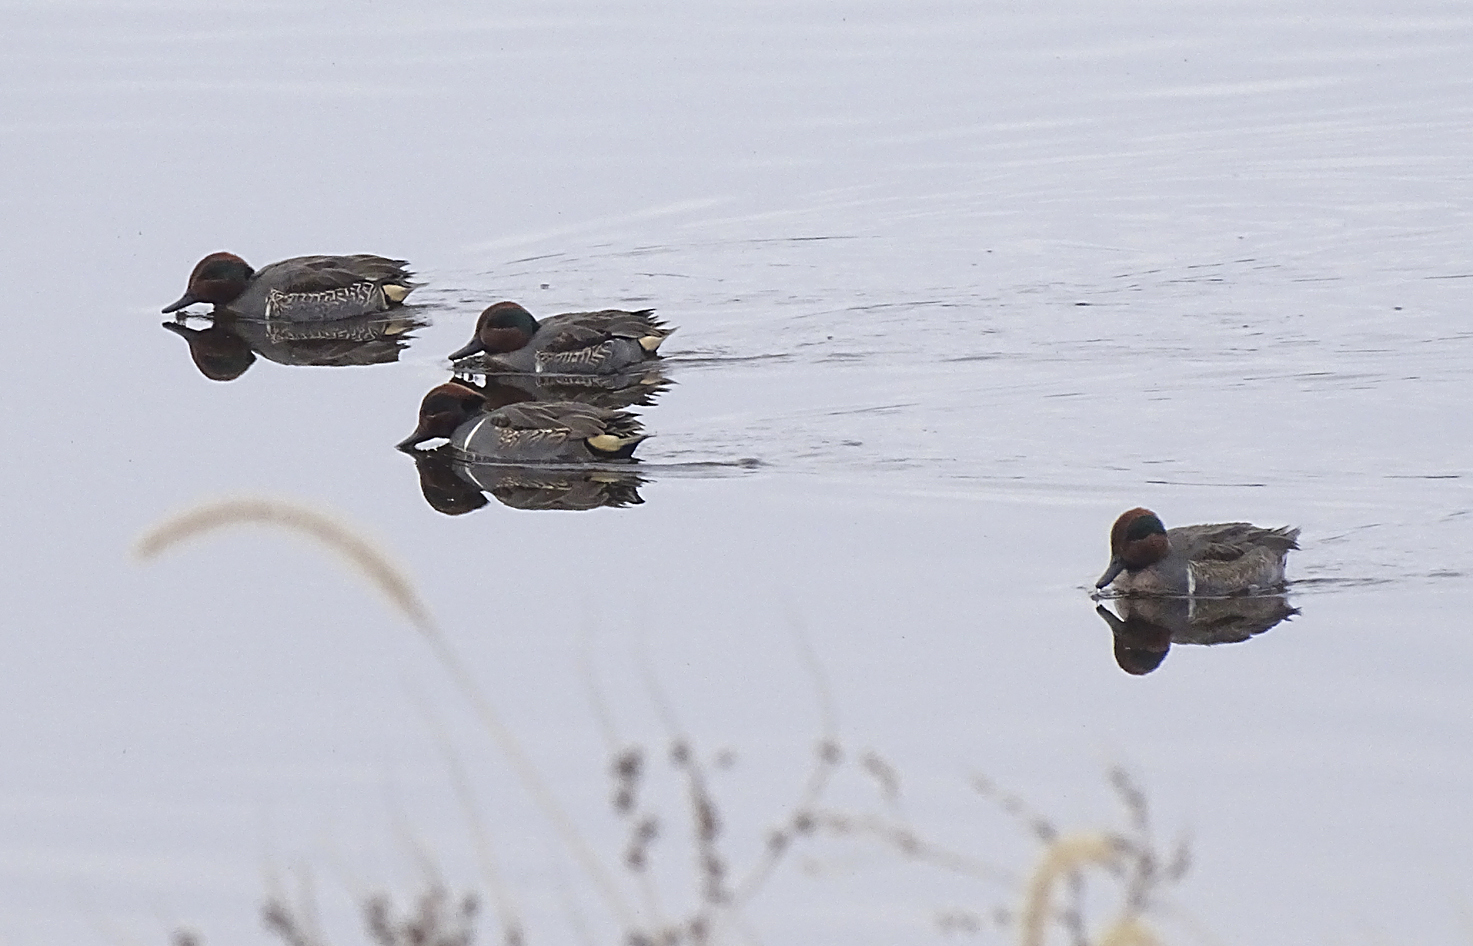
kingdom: Animalia
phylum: Chordata
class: Aves
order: Anseriformes
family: Anatidae
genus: Anas
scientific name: Anas crecca
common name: Eurasian teal
